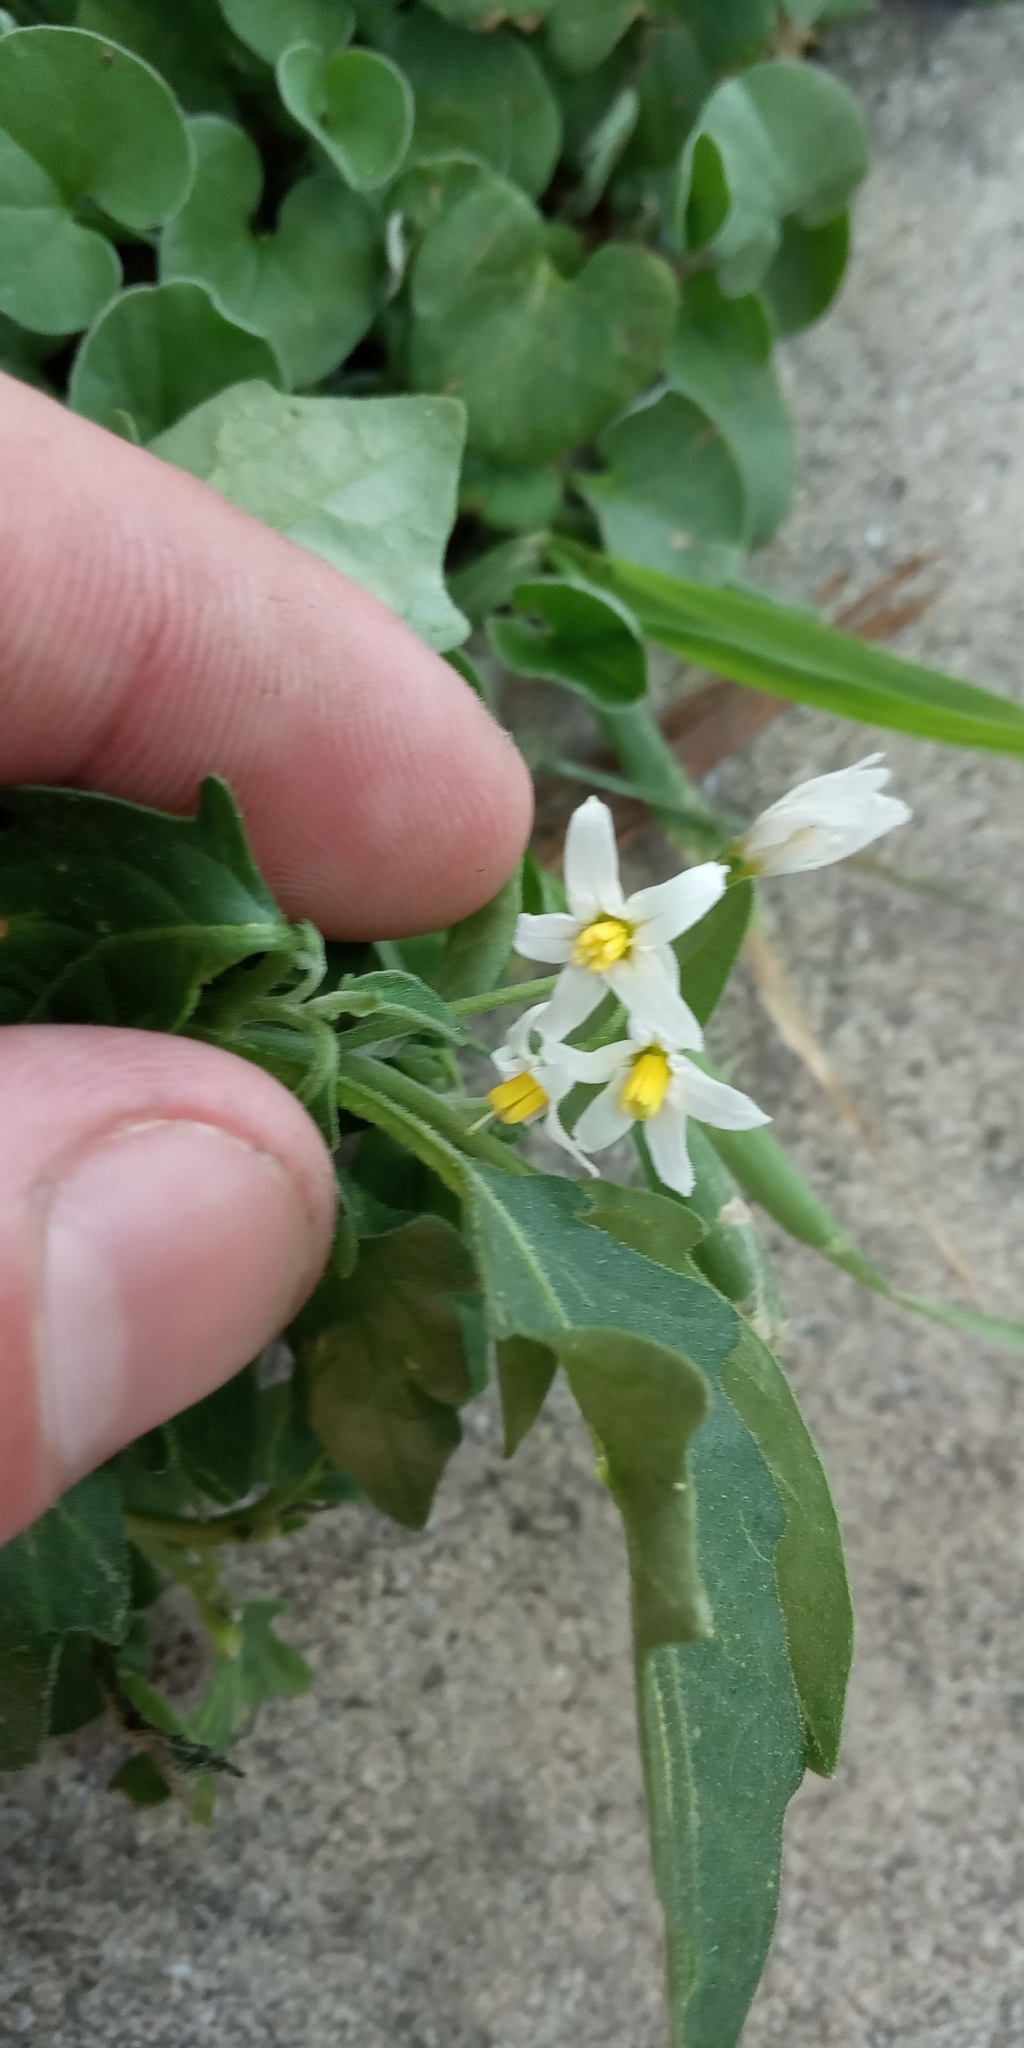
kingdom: Plantae
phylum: Tracheophyta
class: Magnoliopsida
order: Solanales
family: Solanaceae
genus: Solanum
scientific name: Solanum chenopodioides
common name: Tall nightshade
